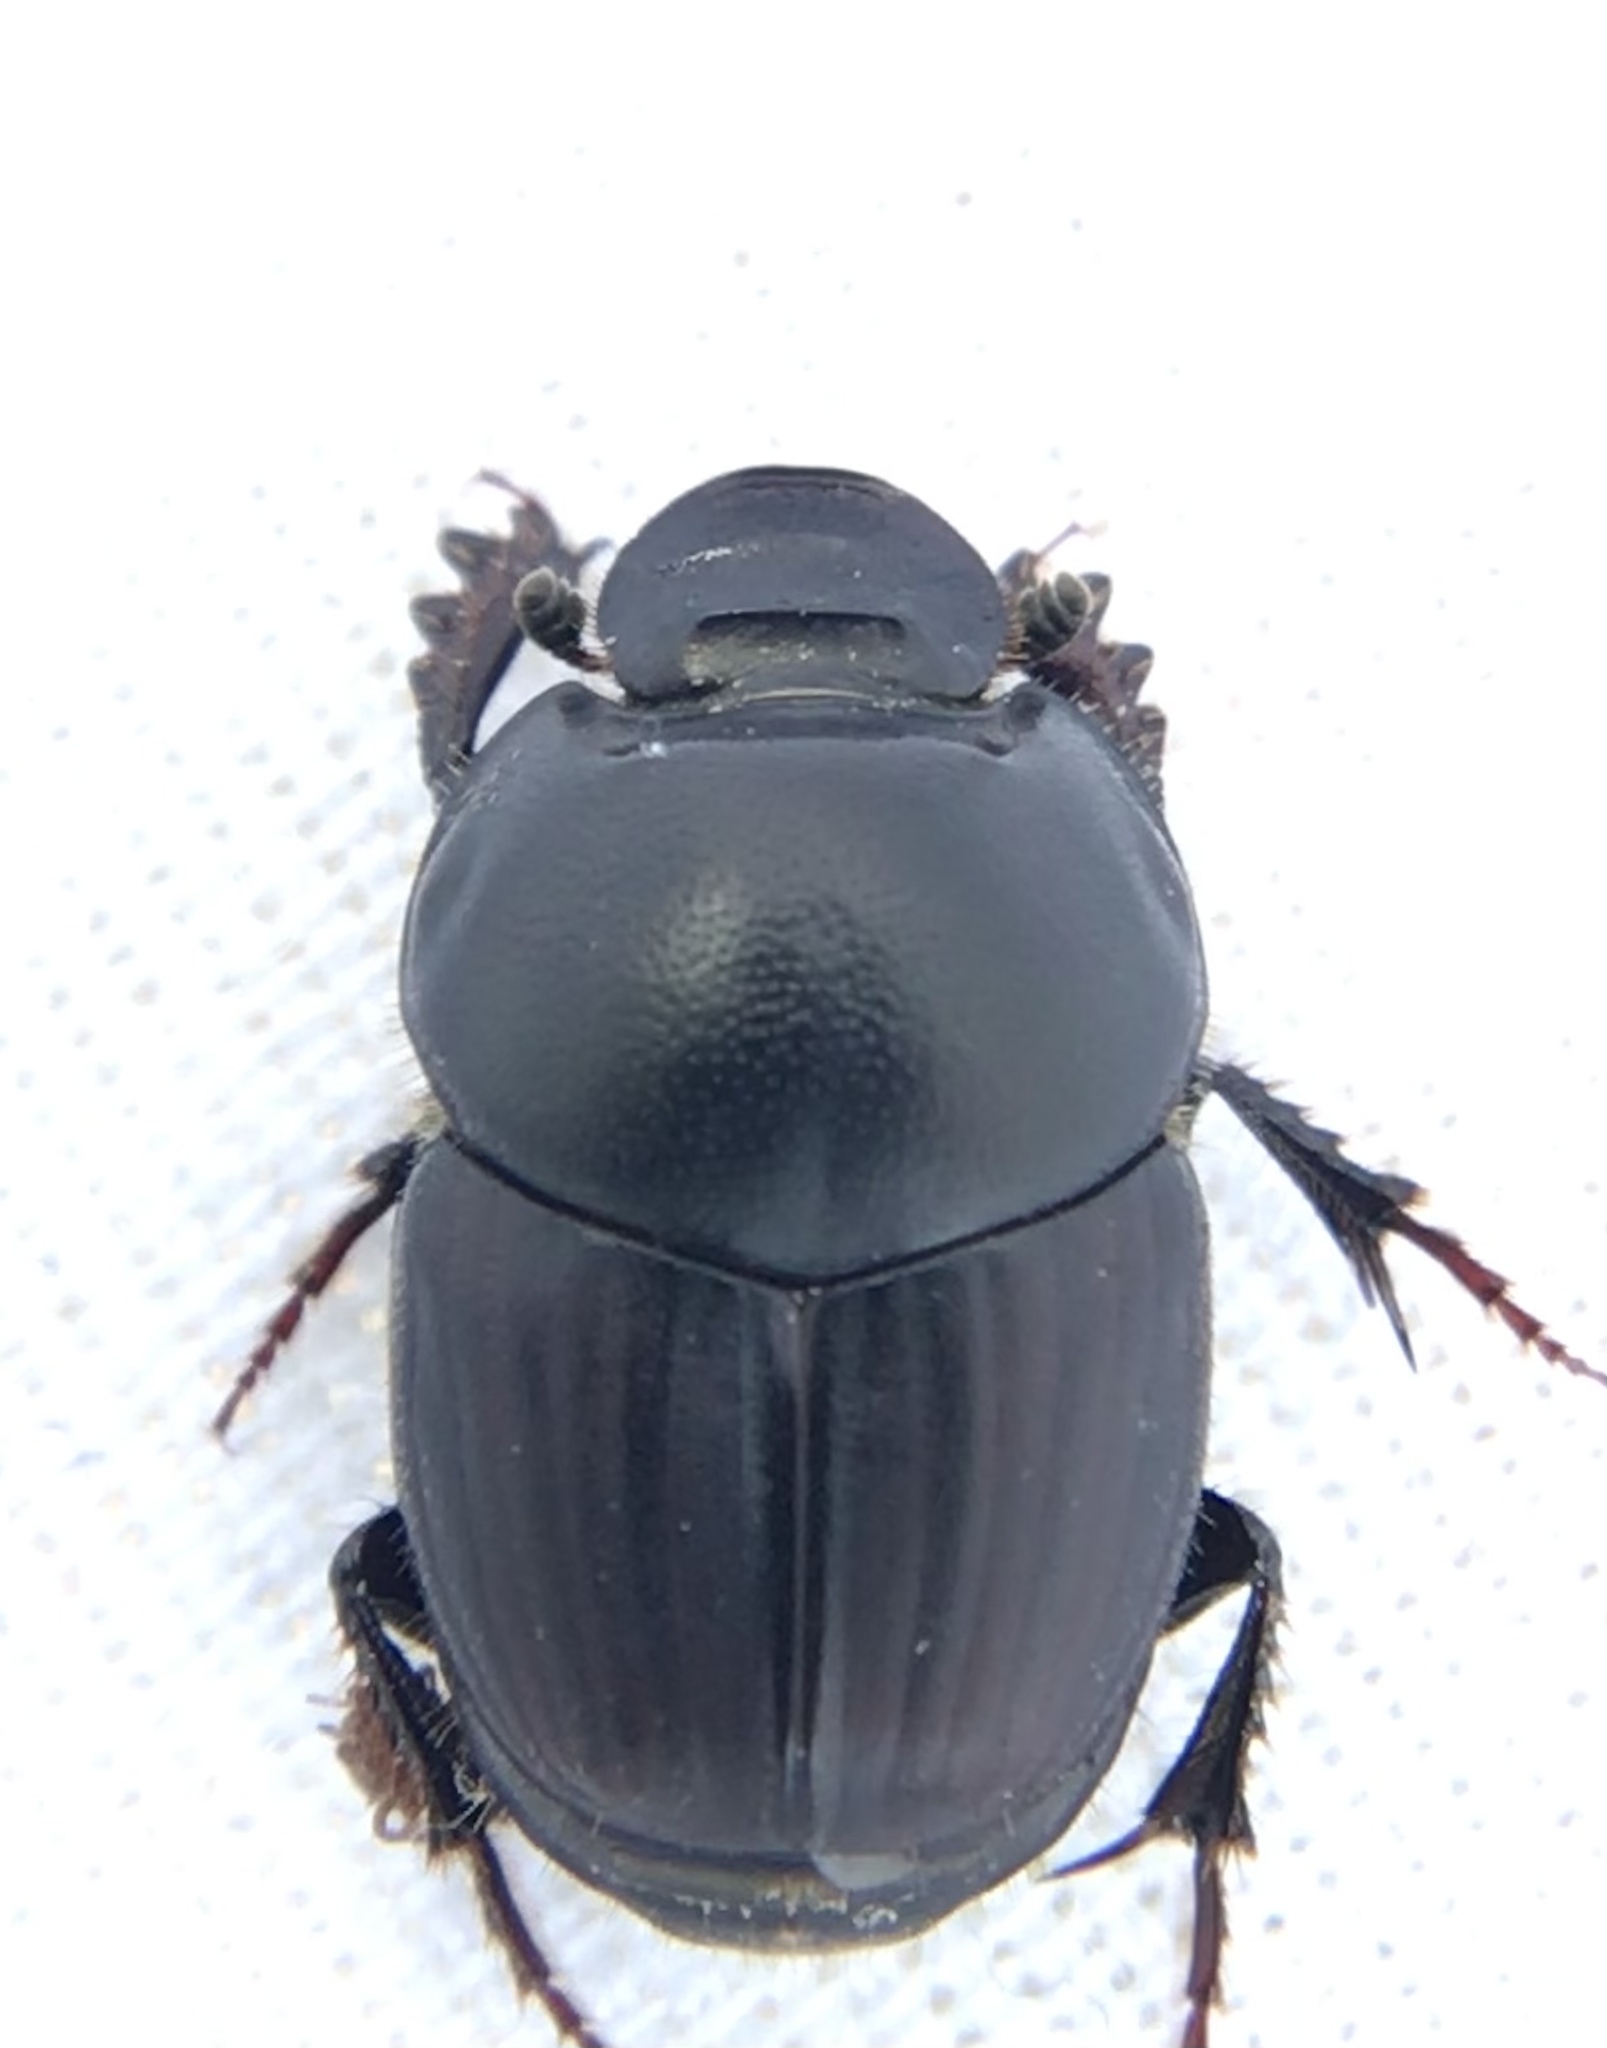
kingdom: Animalia
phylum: Arthropoda
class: Insecta
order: Coleoptera
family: Scarabaeidae
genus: Onthophagus
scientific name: Onthophagus taurus
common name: Bullhorned dung beetle
